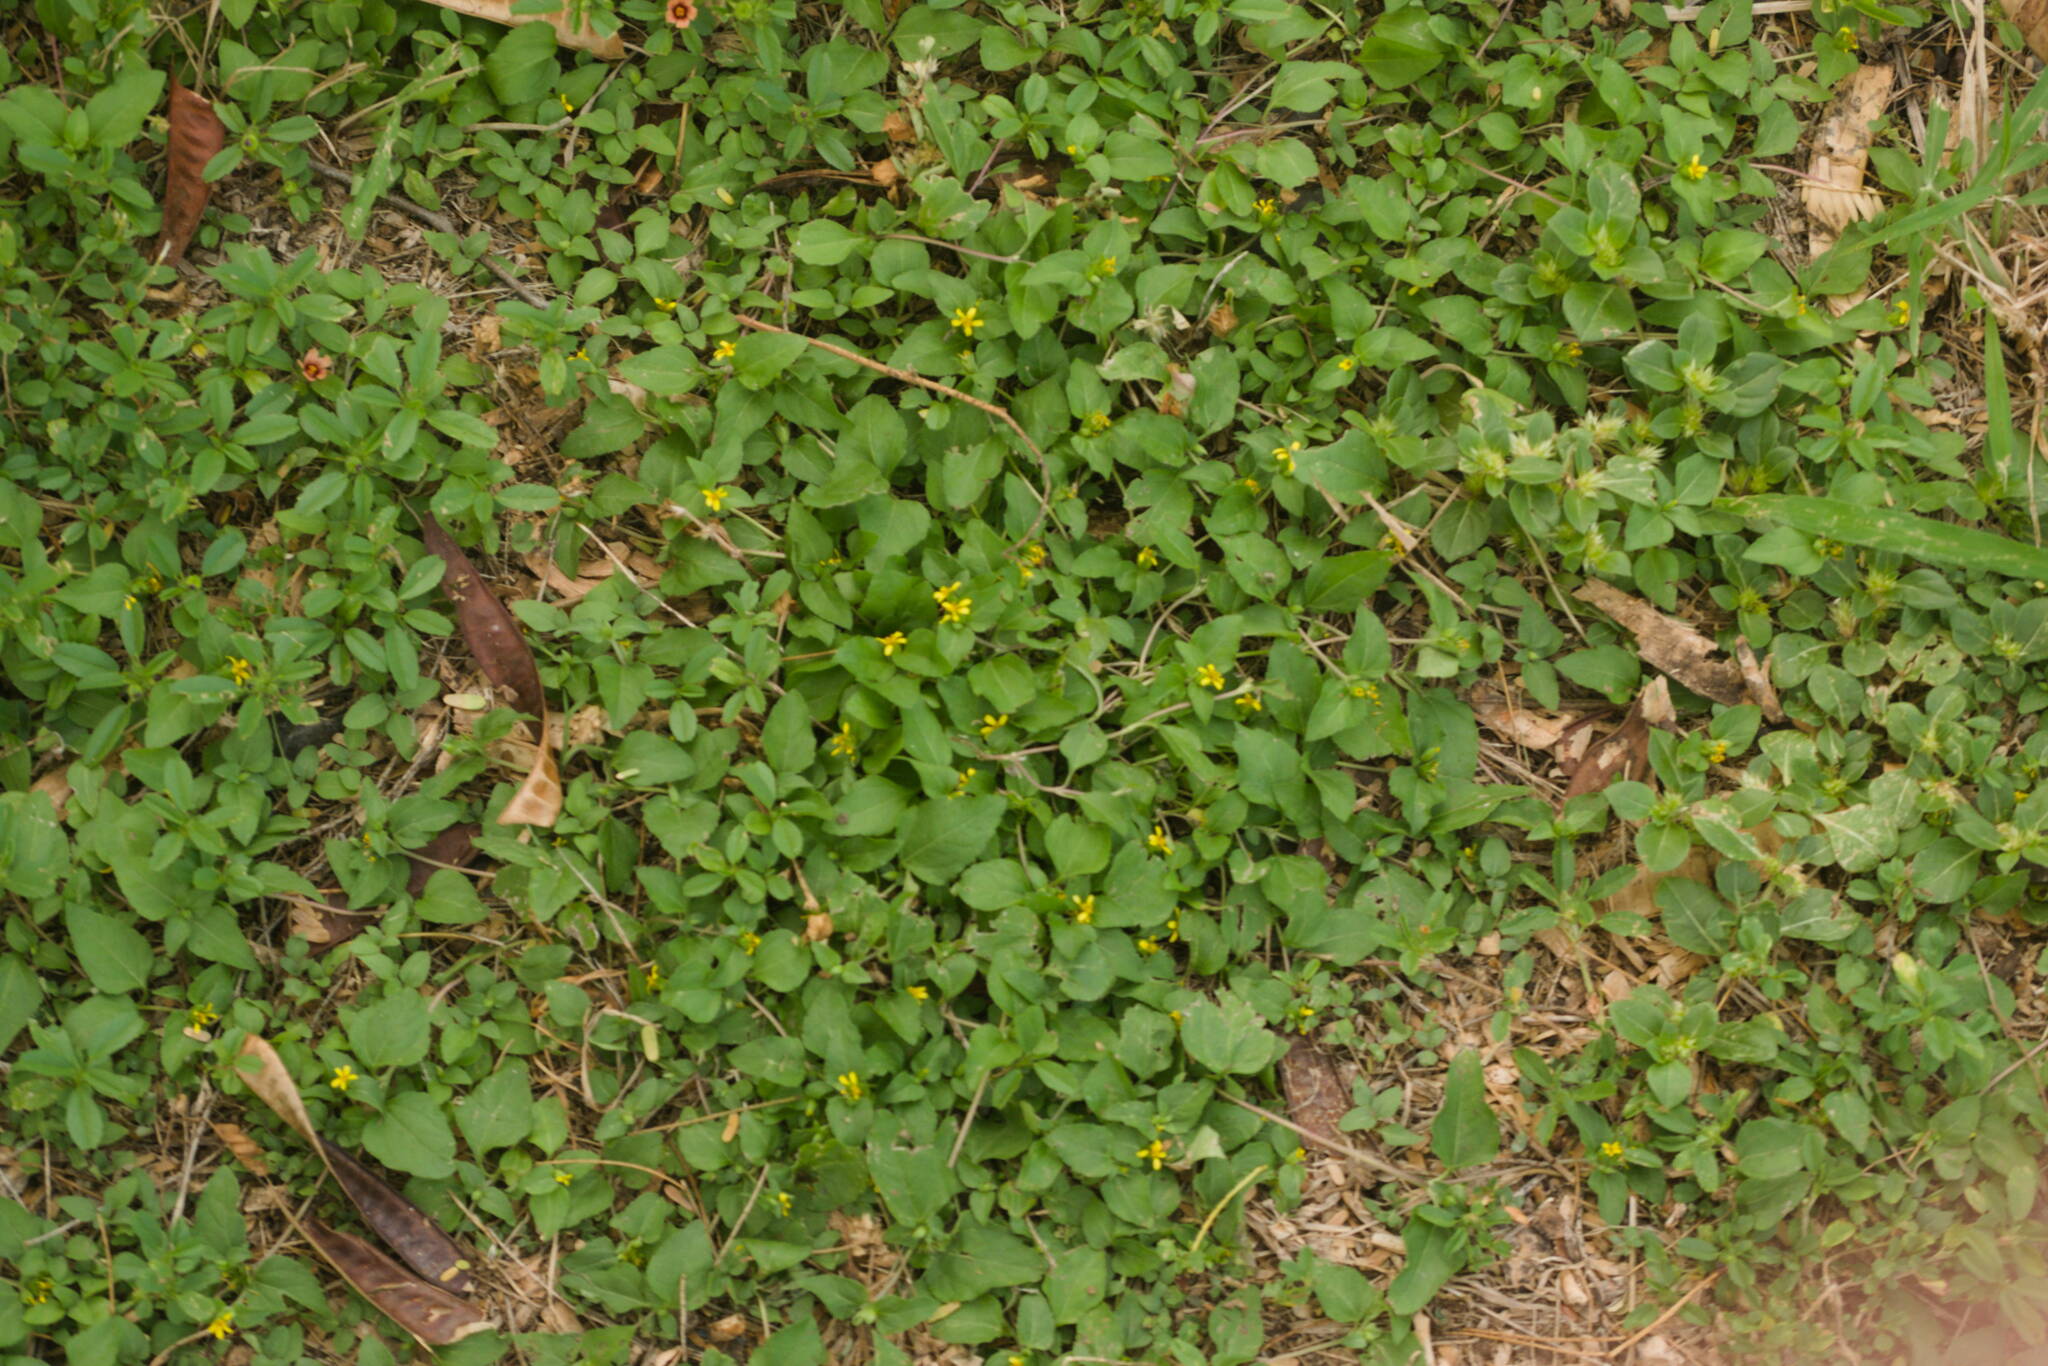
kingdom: Plantae
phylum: Tracheophyta
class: Magnoliopsida
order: Asterales
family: Asteraceae
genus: Calyptocarpus
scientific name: Calyptocarpus vialis
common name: Straggler daisy
